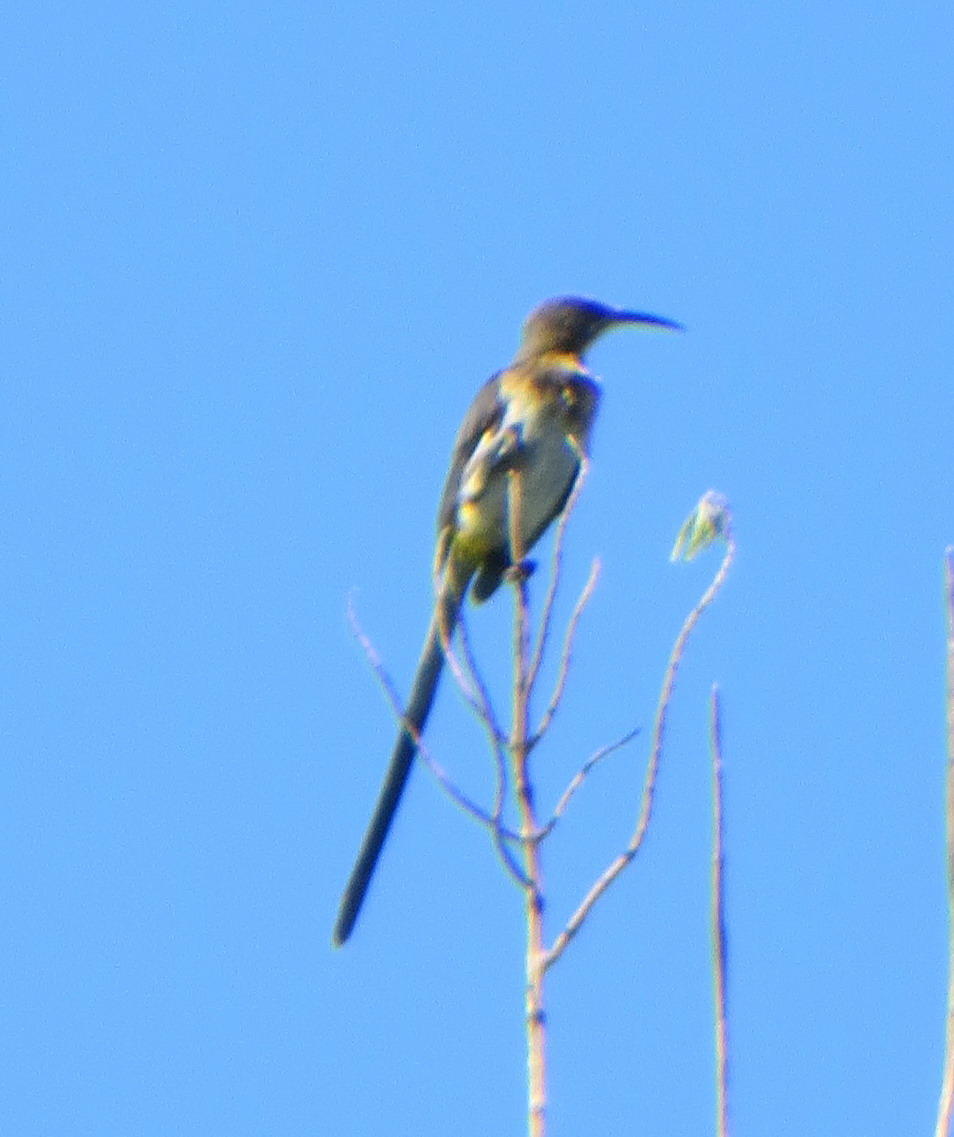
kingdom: Animalia
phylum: Chordata
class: Aves
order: Passeriformes
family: Promeropidae
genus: Promerops
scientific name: Promerops cafer
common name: Cape sugarbird
